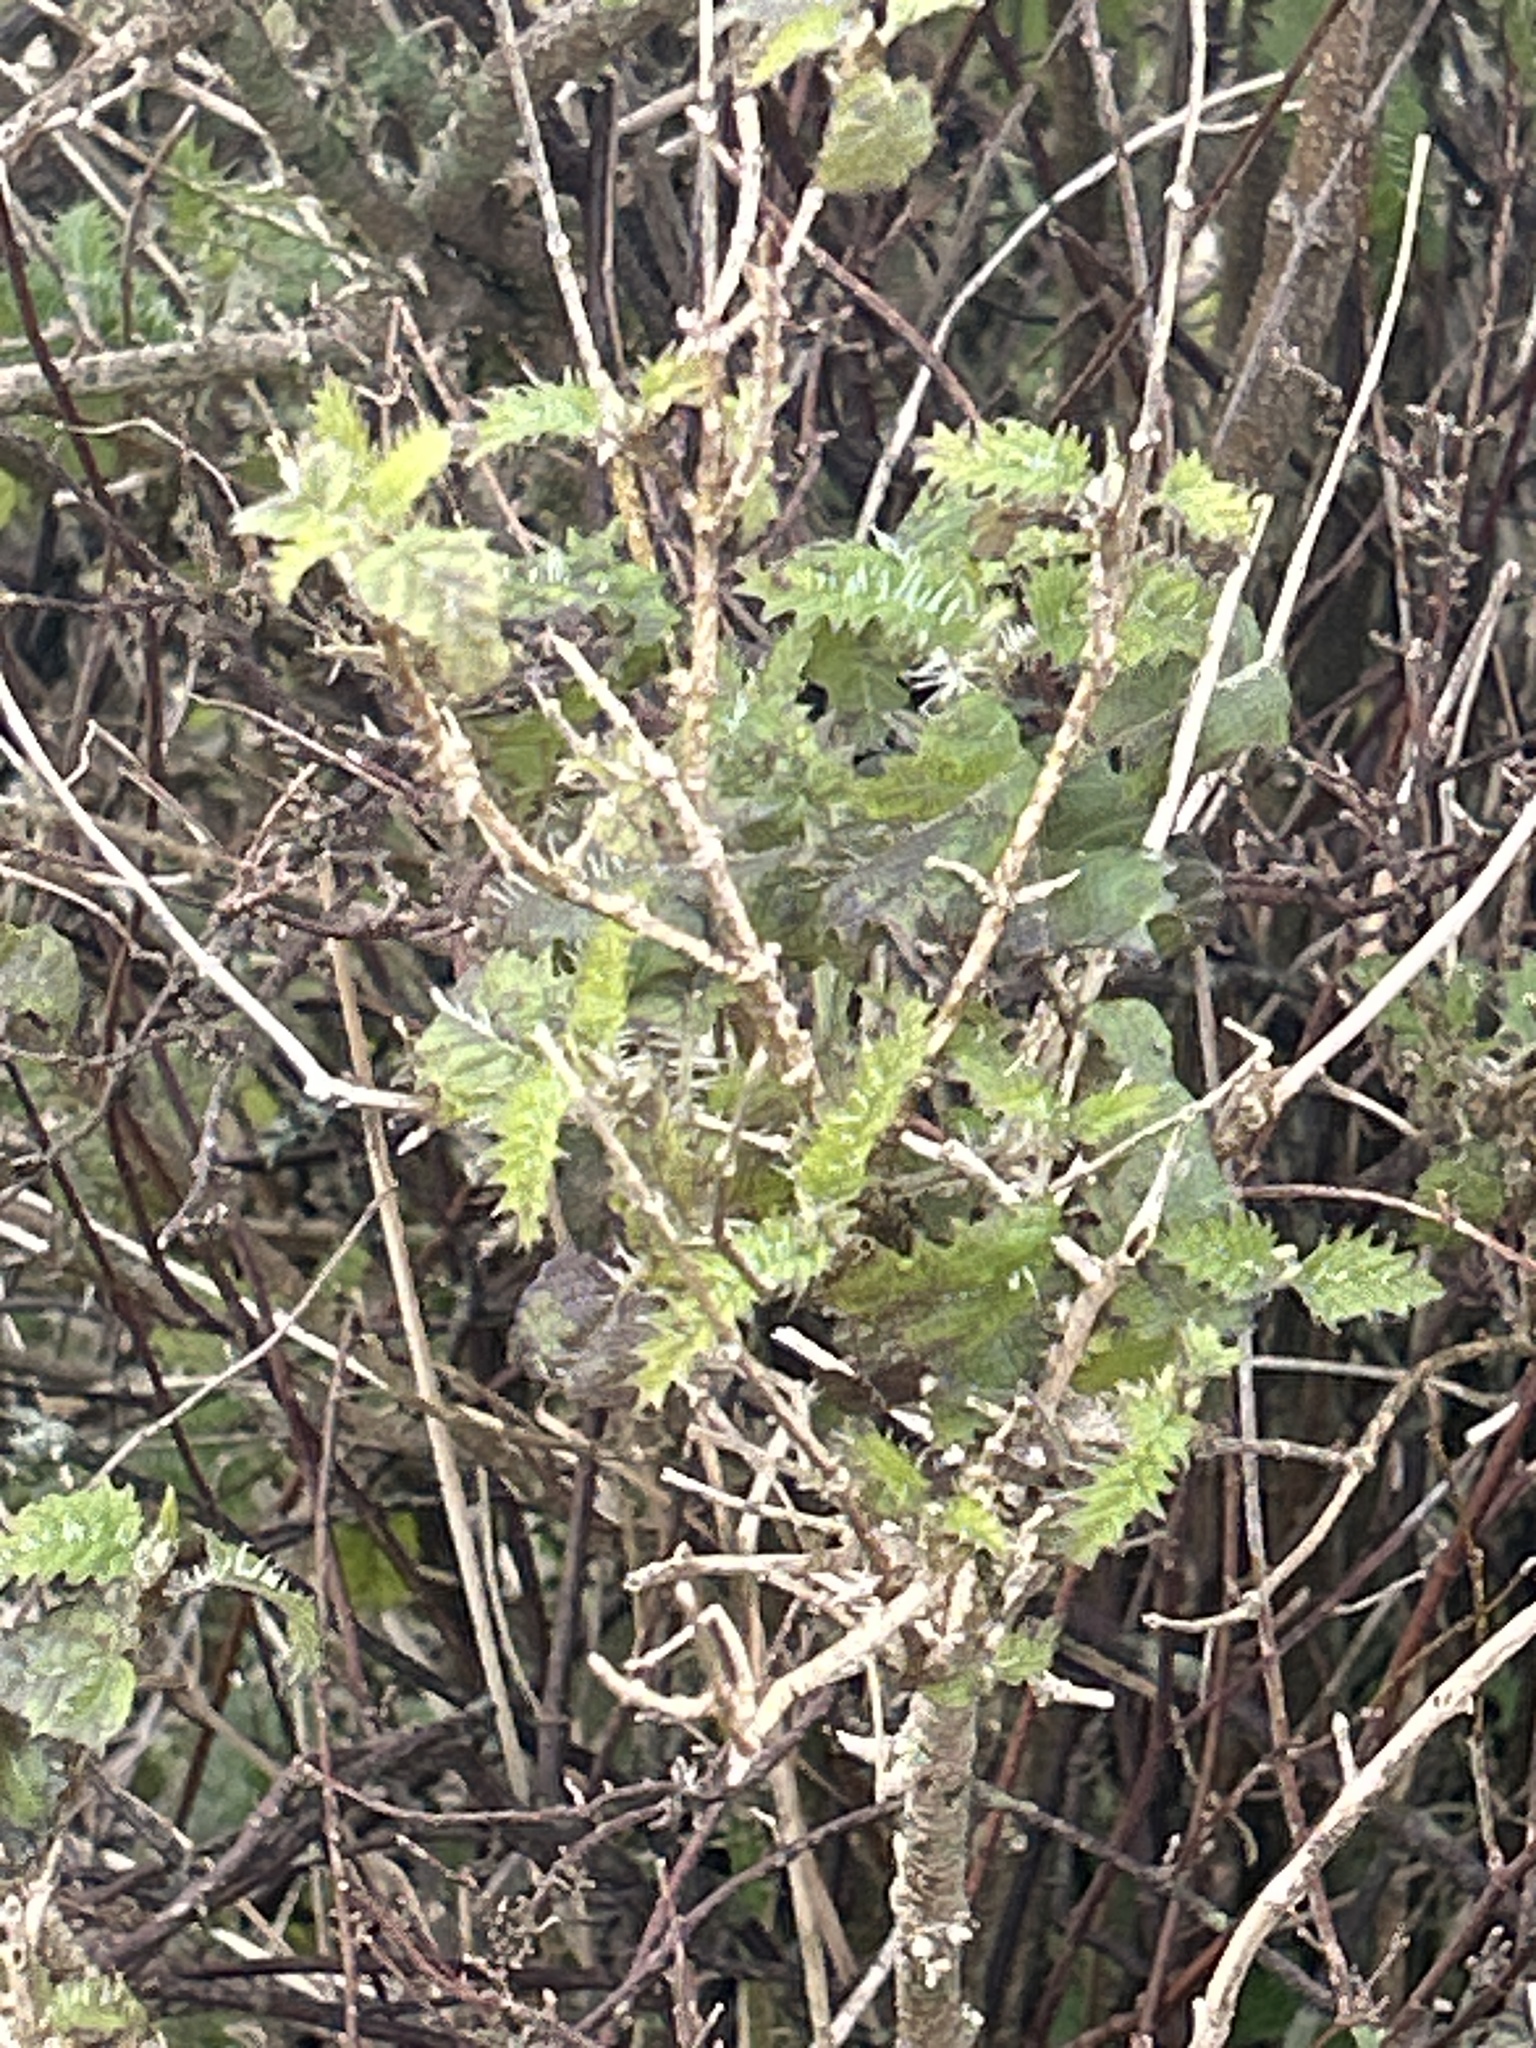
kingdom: Plantae
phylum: Tracheophyta
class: Magnoliopsida
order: Rosales
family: Urticaceae
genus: Urtica
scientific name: Urtica ferox
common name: Tree nettle
